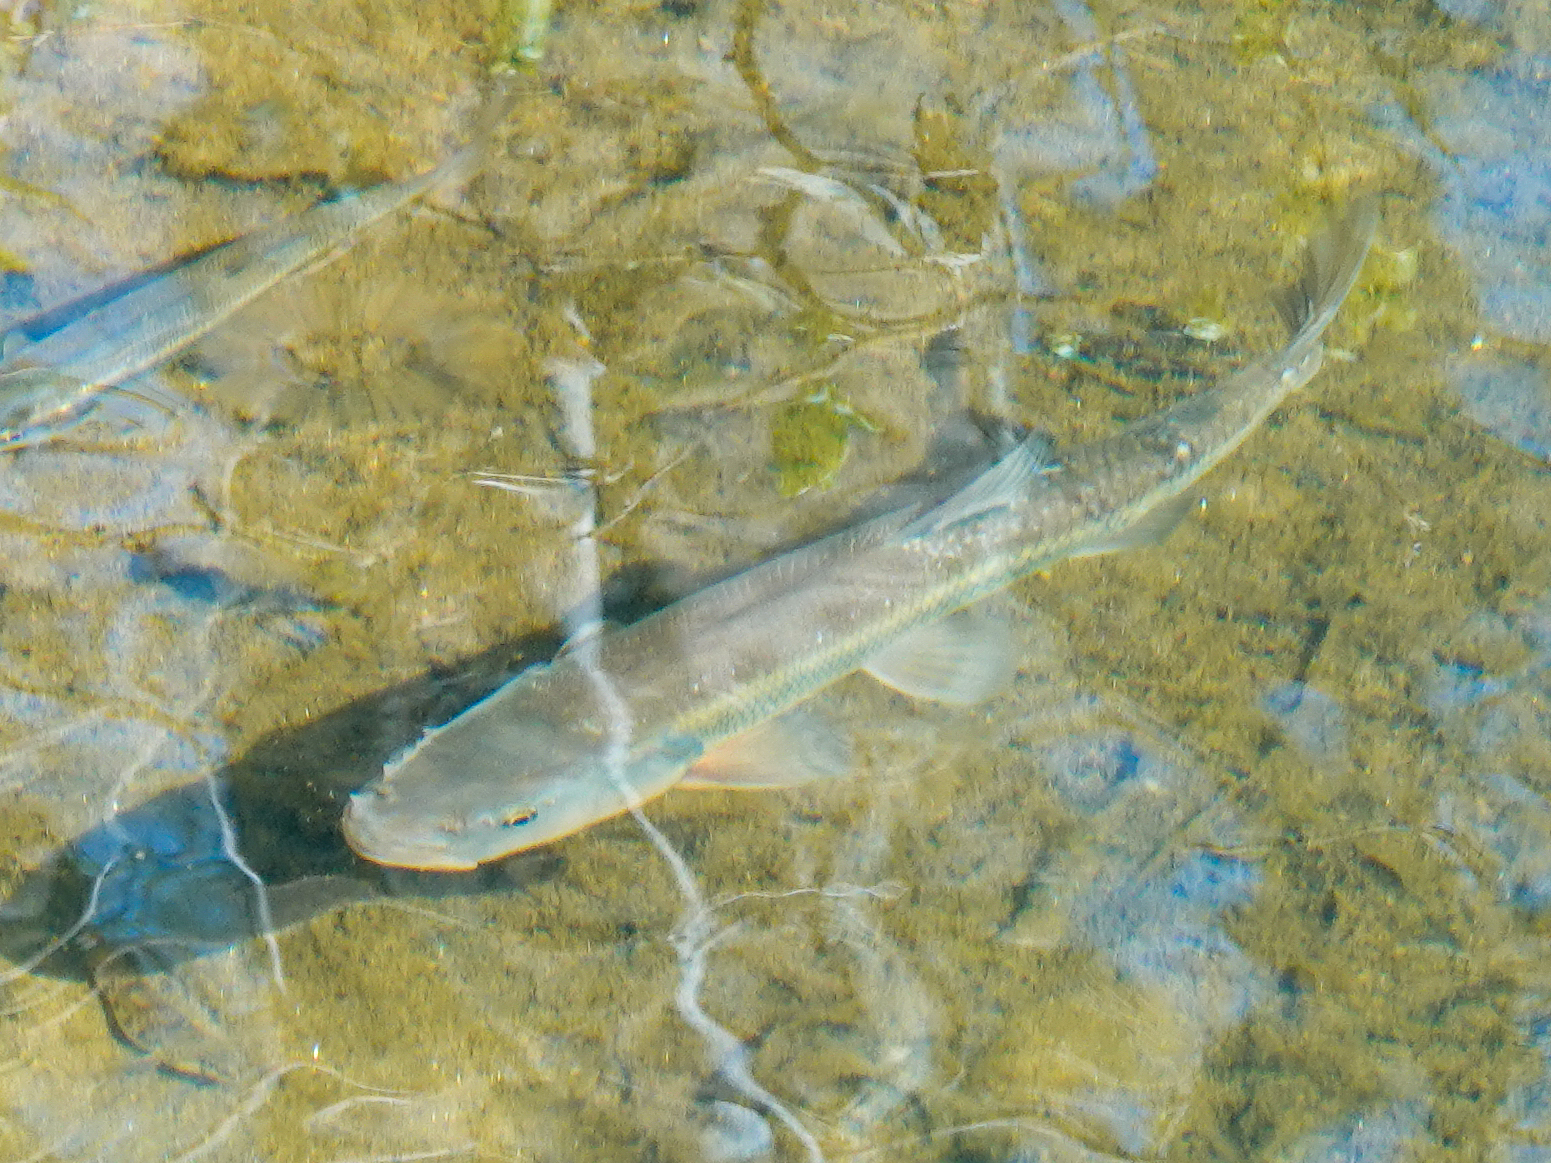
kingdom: Animalia
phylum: Chordata
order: Cypriniformes
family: Cyprinidae
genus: Semotilus
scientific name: Semotilus atromaculatus
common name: Creek chub
